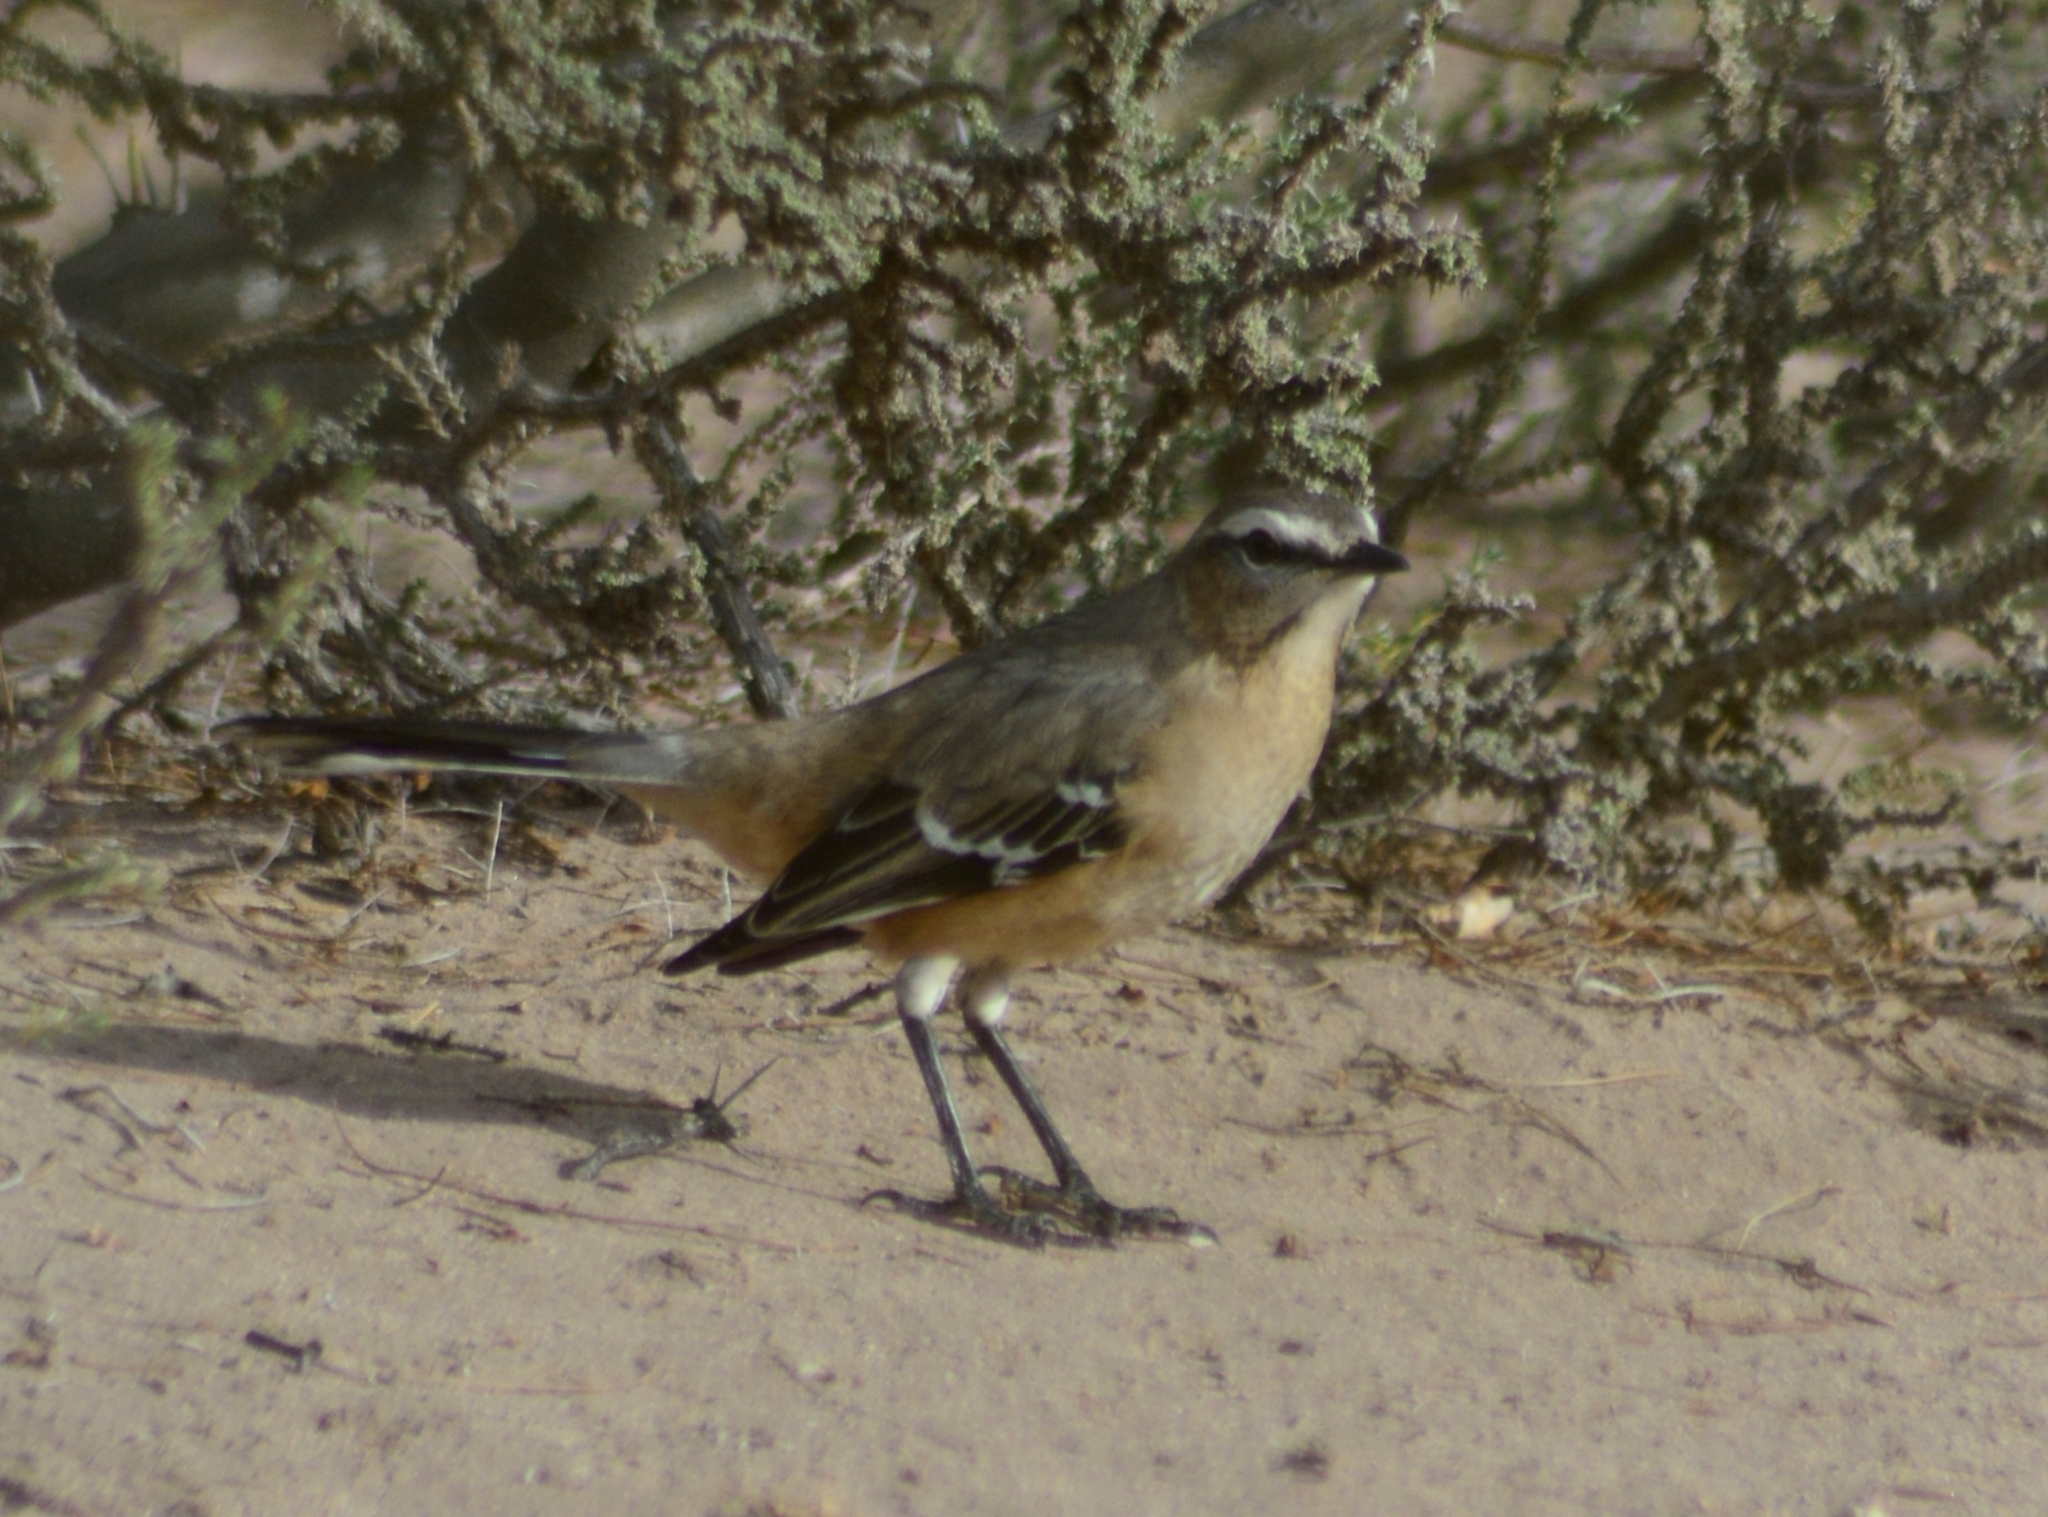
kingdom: Animalia
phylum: Chordata
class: Aves
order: Passeriformes
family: Mimidae
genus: Mimus
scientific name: Mimus patagonicus
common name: Patagonian mockingbird
